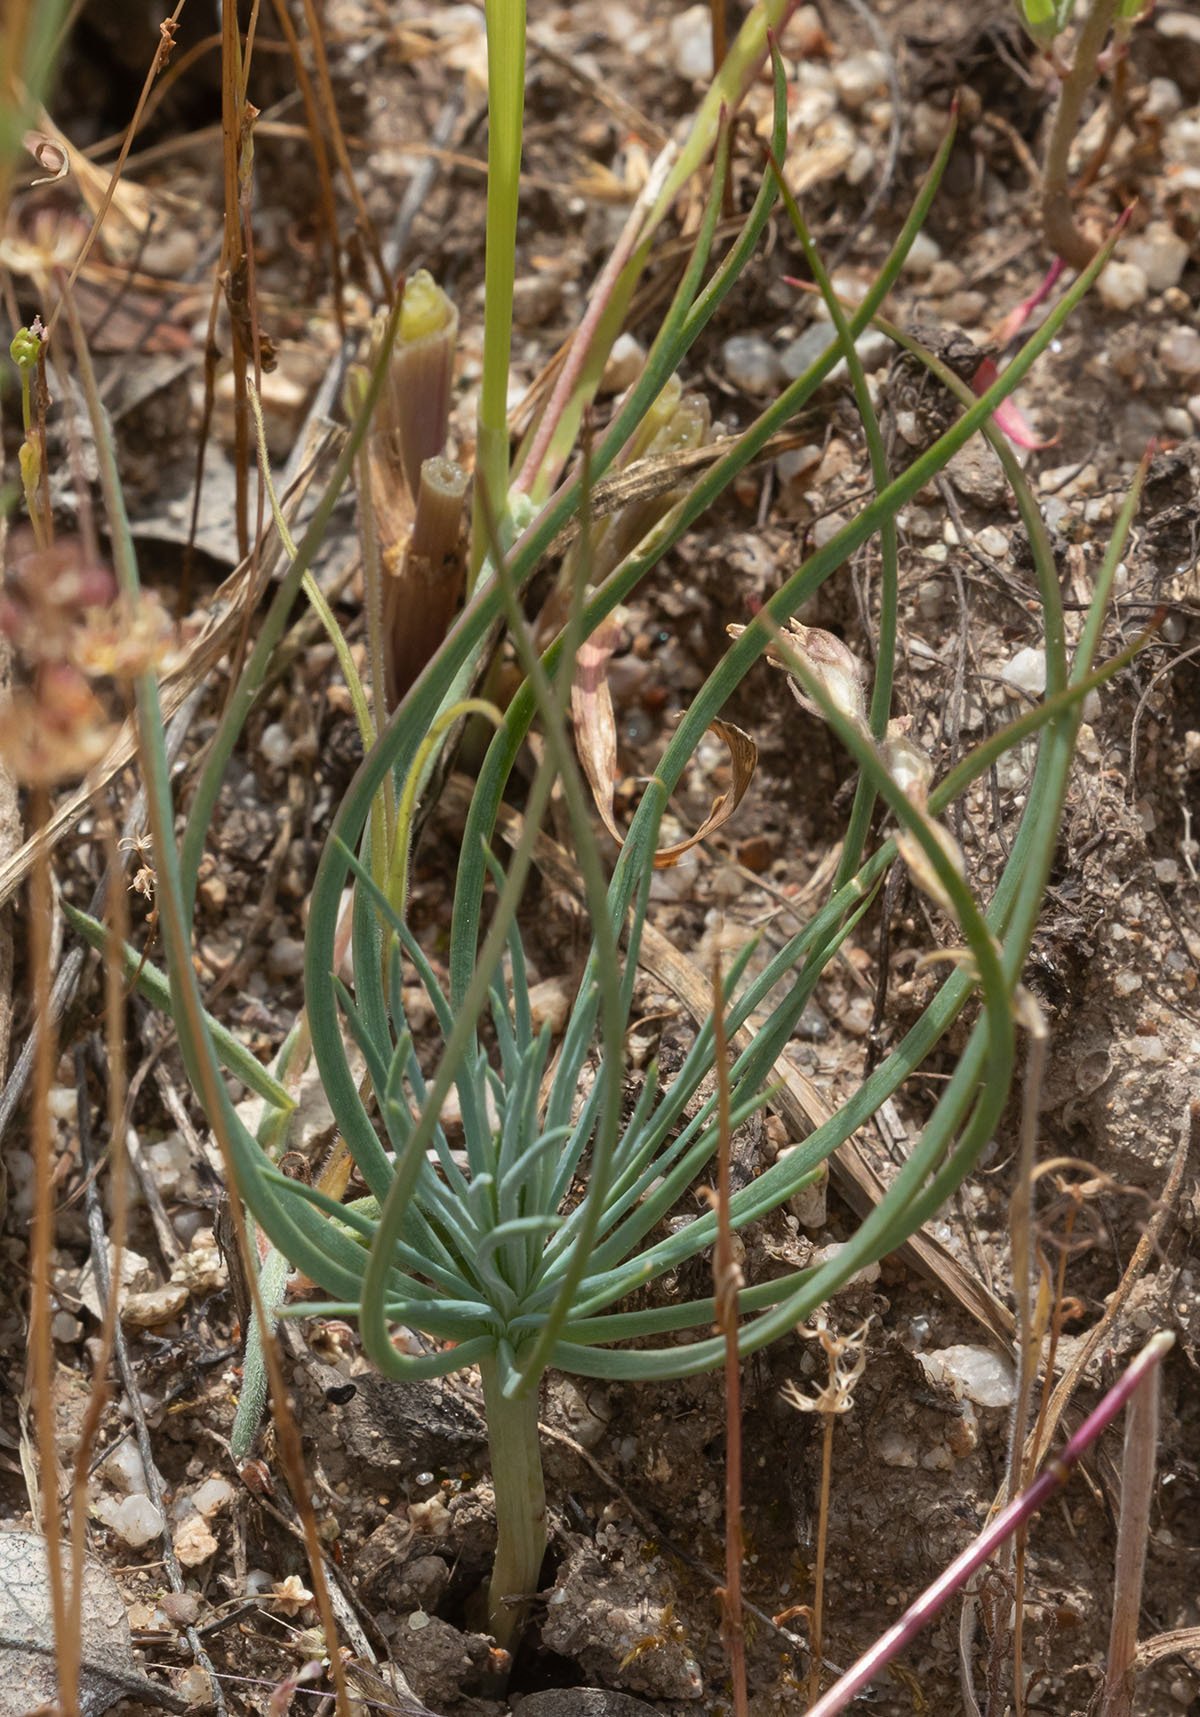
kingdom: Plantae
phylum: Tracheophyta
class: Pinopsida
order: Pinales
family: Pinaceae
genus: Pinus
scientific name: Pinus sabiniana
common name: Bull pine
